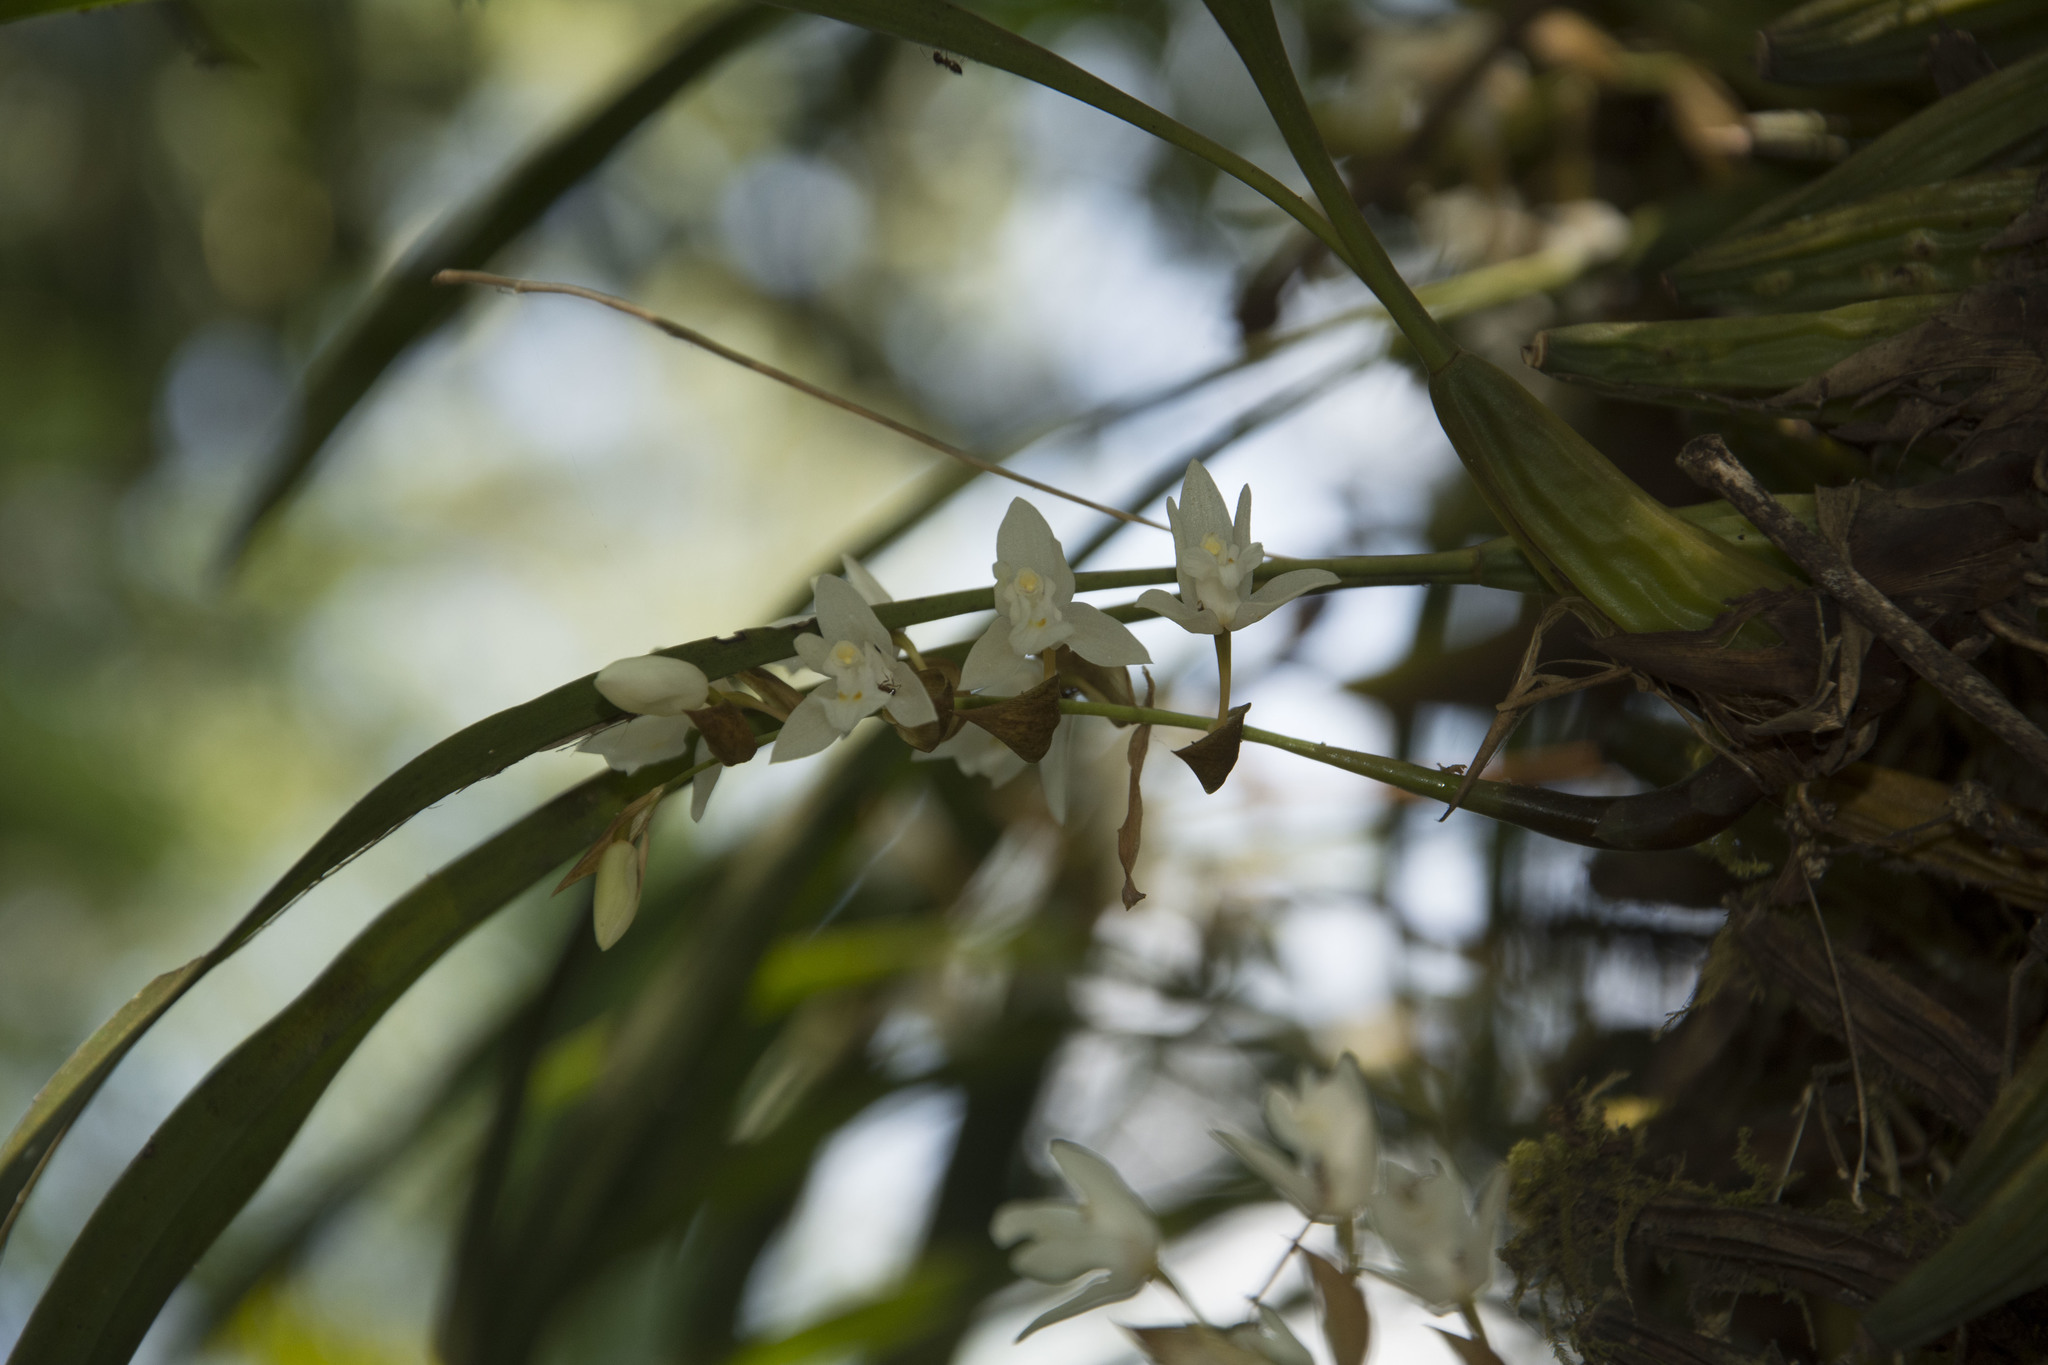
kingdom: Plantae
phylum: Tracheophyta
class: Liliopsida
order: Asparagales
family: Orchidaceae
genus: Coelogyne
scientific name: Coelogyne breviscapa
